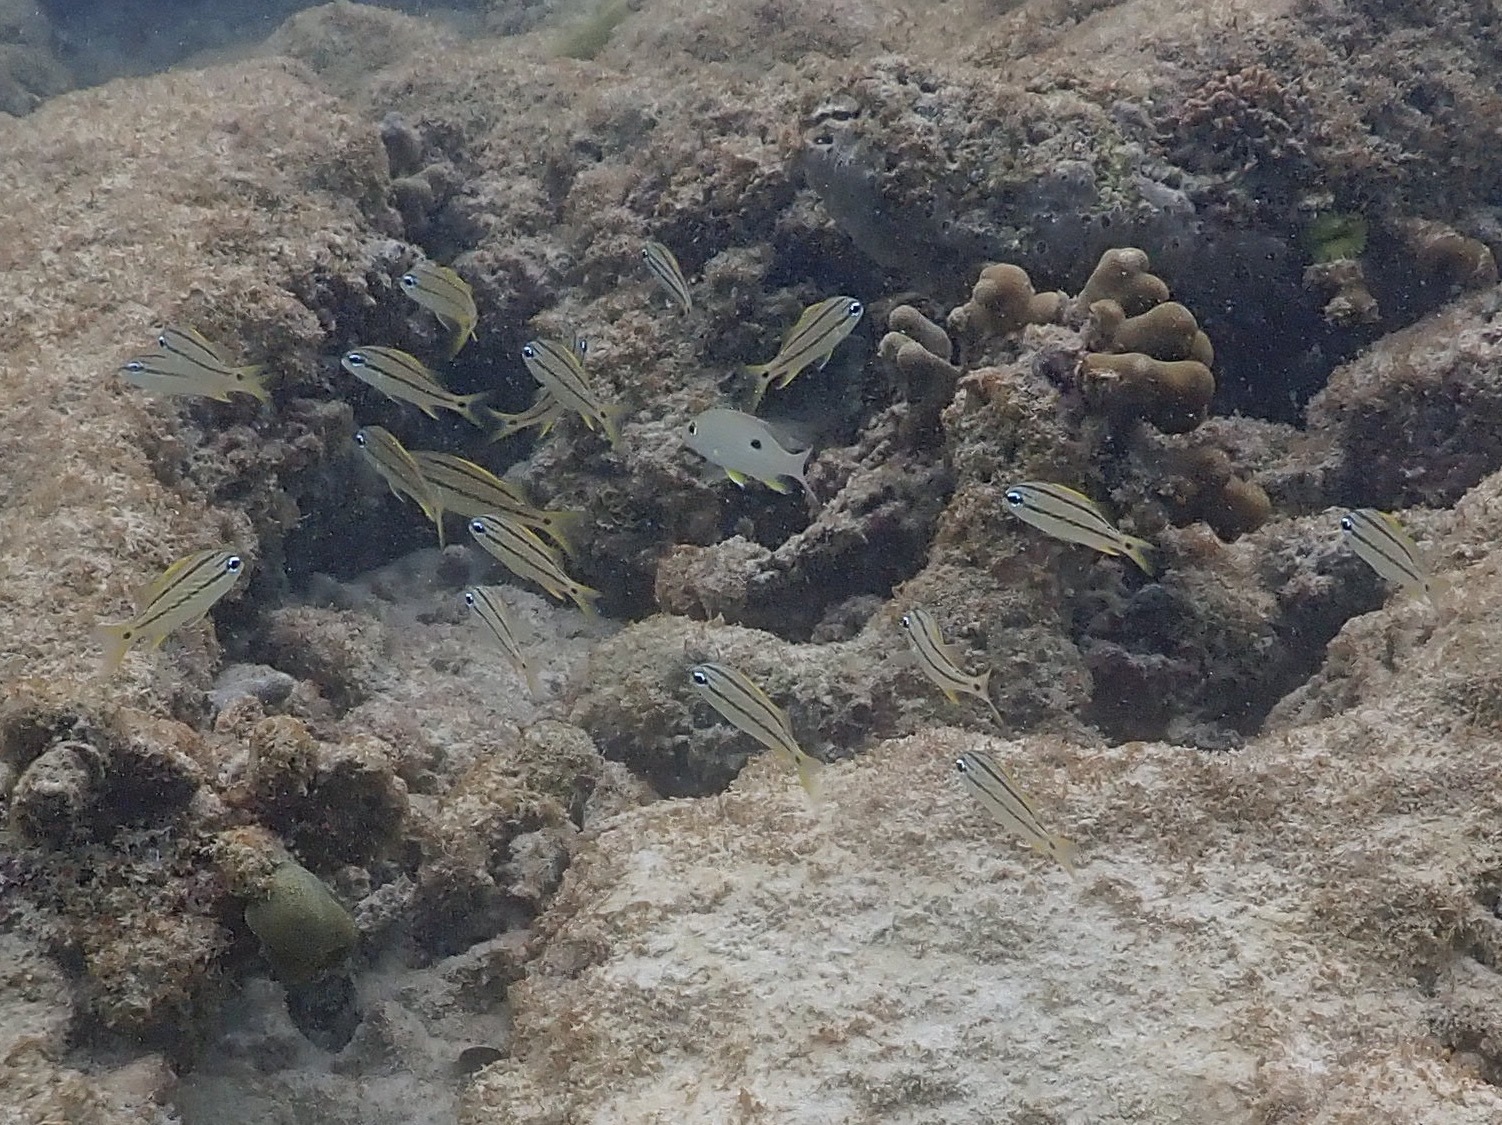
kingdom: Animalia
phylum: Chordata
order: Perciformes
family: Haemulidae
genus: Haemulon
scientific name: Haemulon flavolineatum
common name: French grunt
